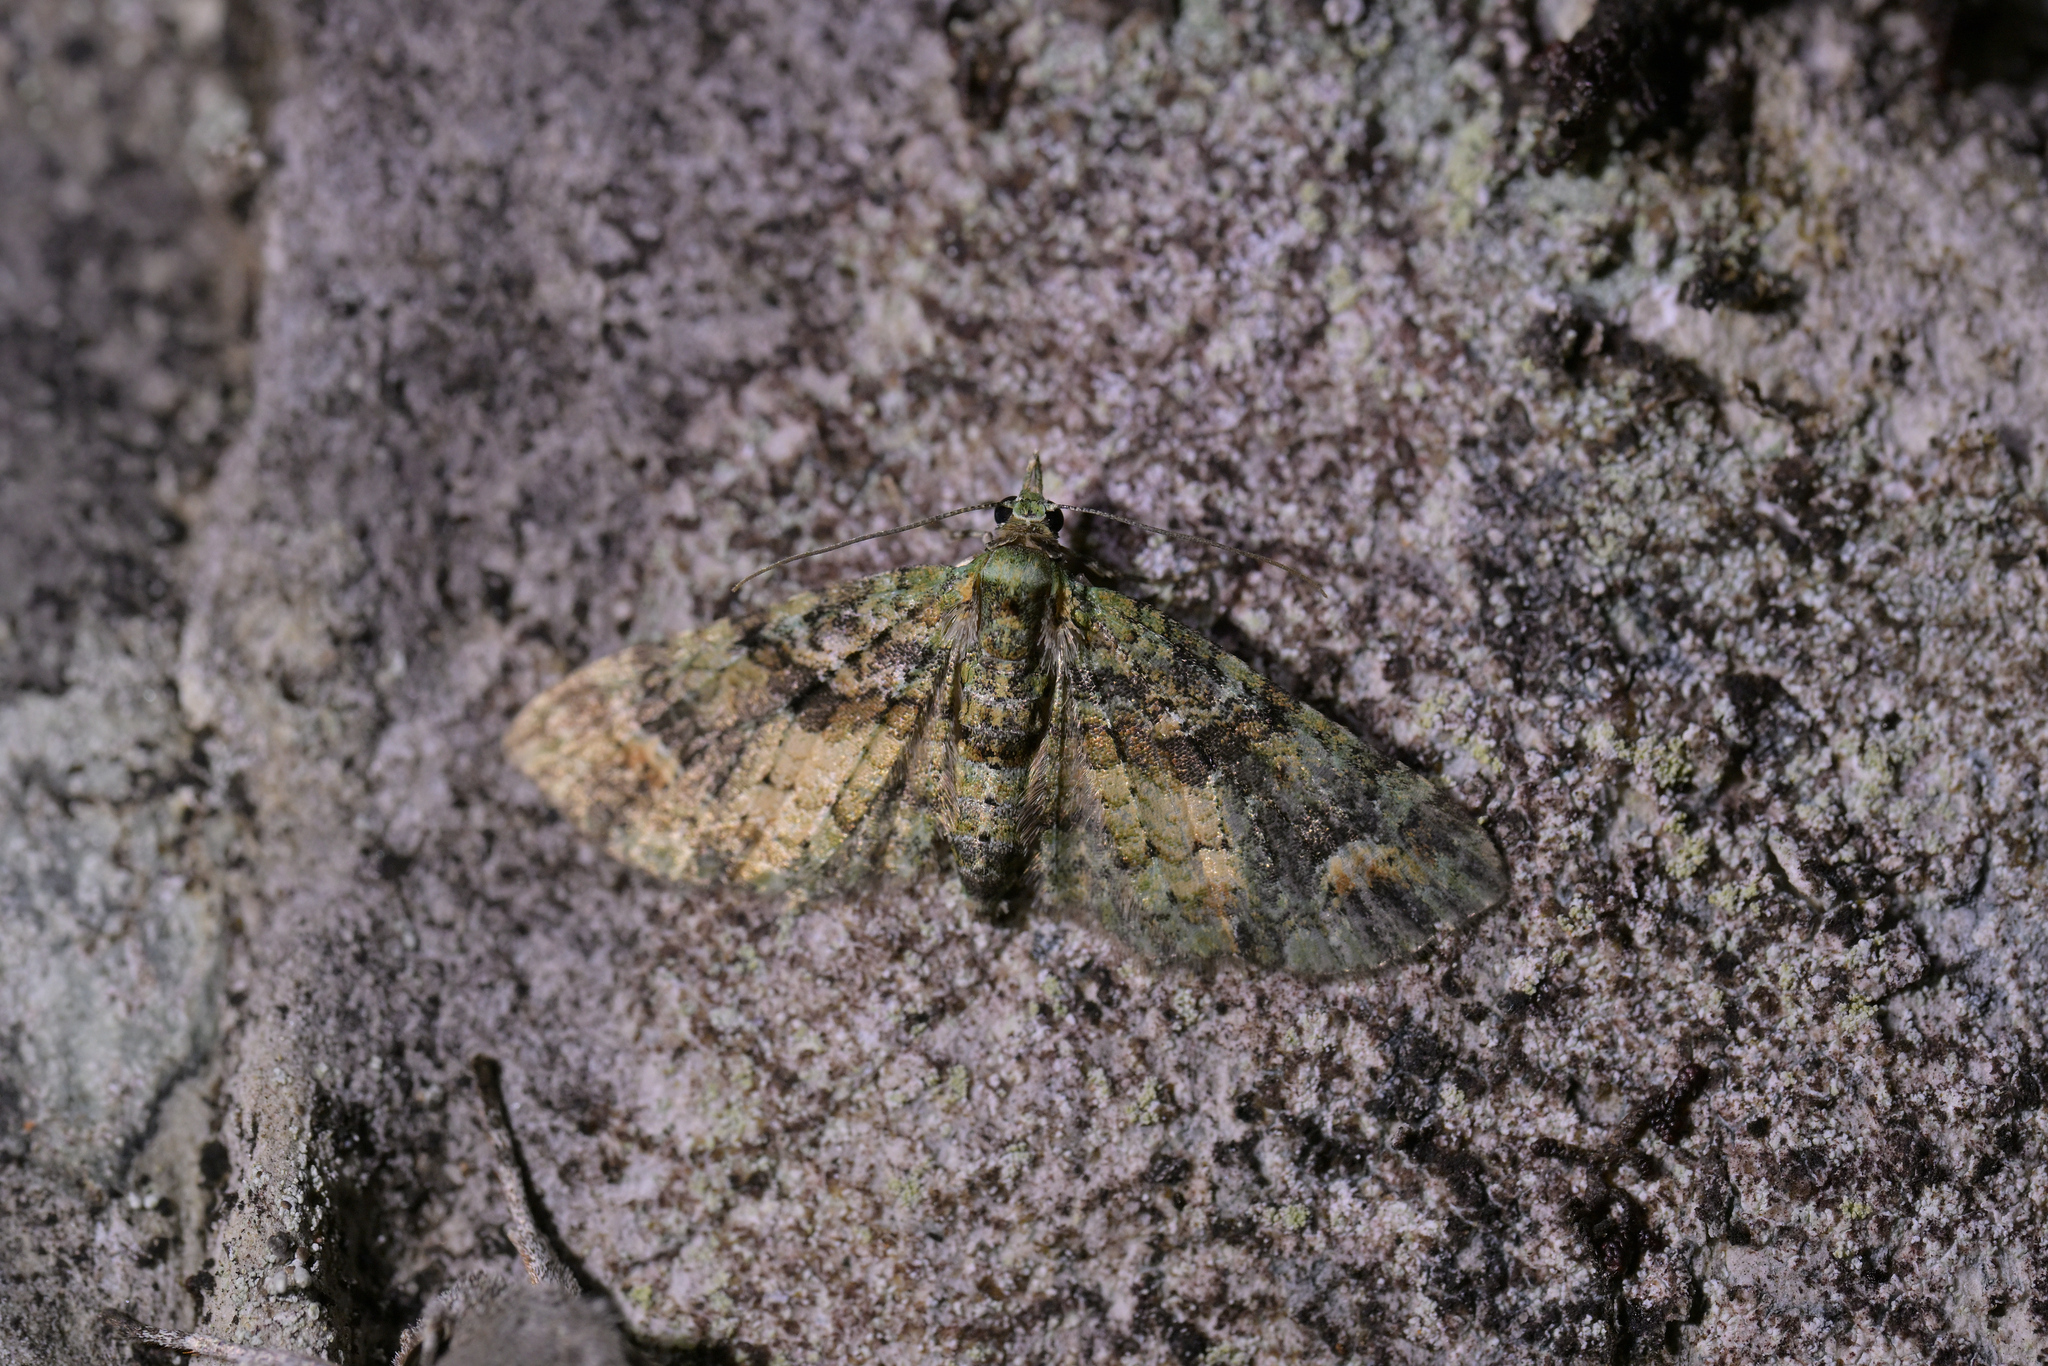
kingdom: Animalia
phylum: Arthropoda
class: Insecta
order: Lepidoptera
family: Geometridae
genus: Idaea
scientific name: Idaea mutanda
